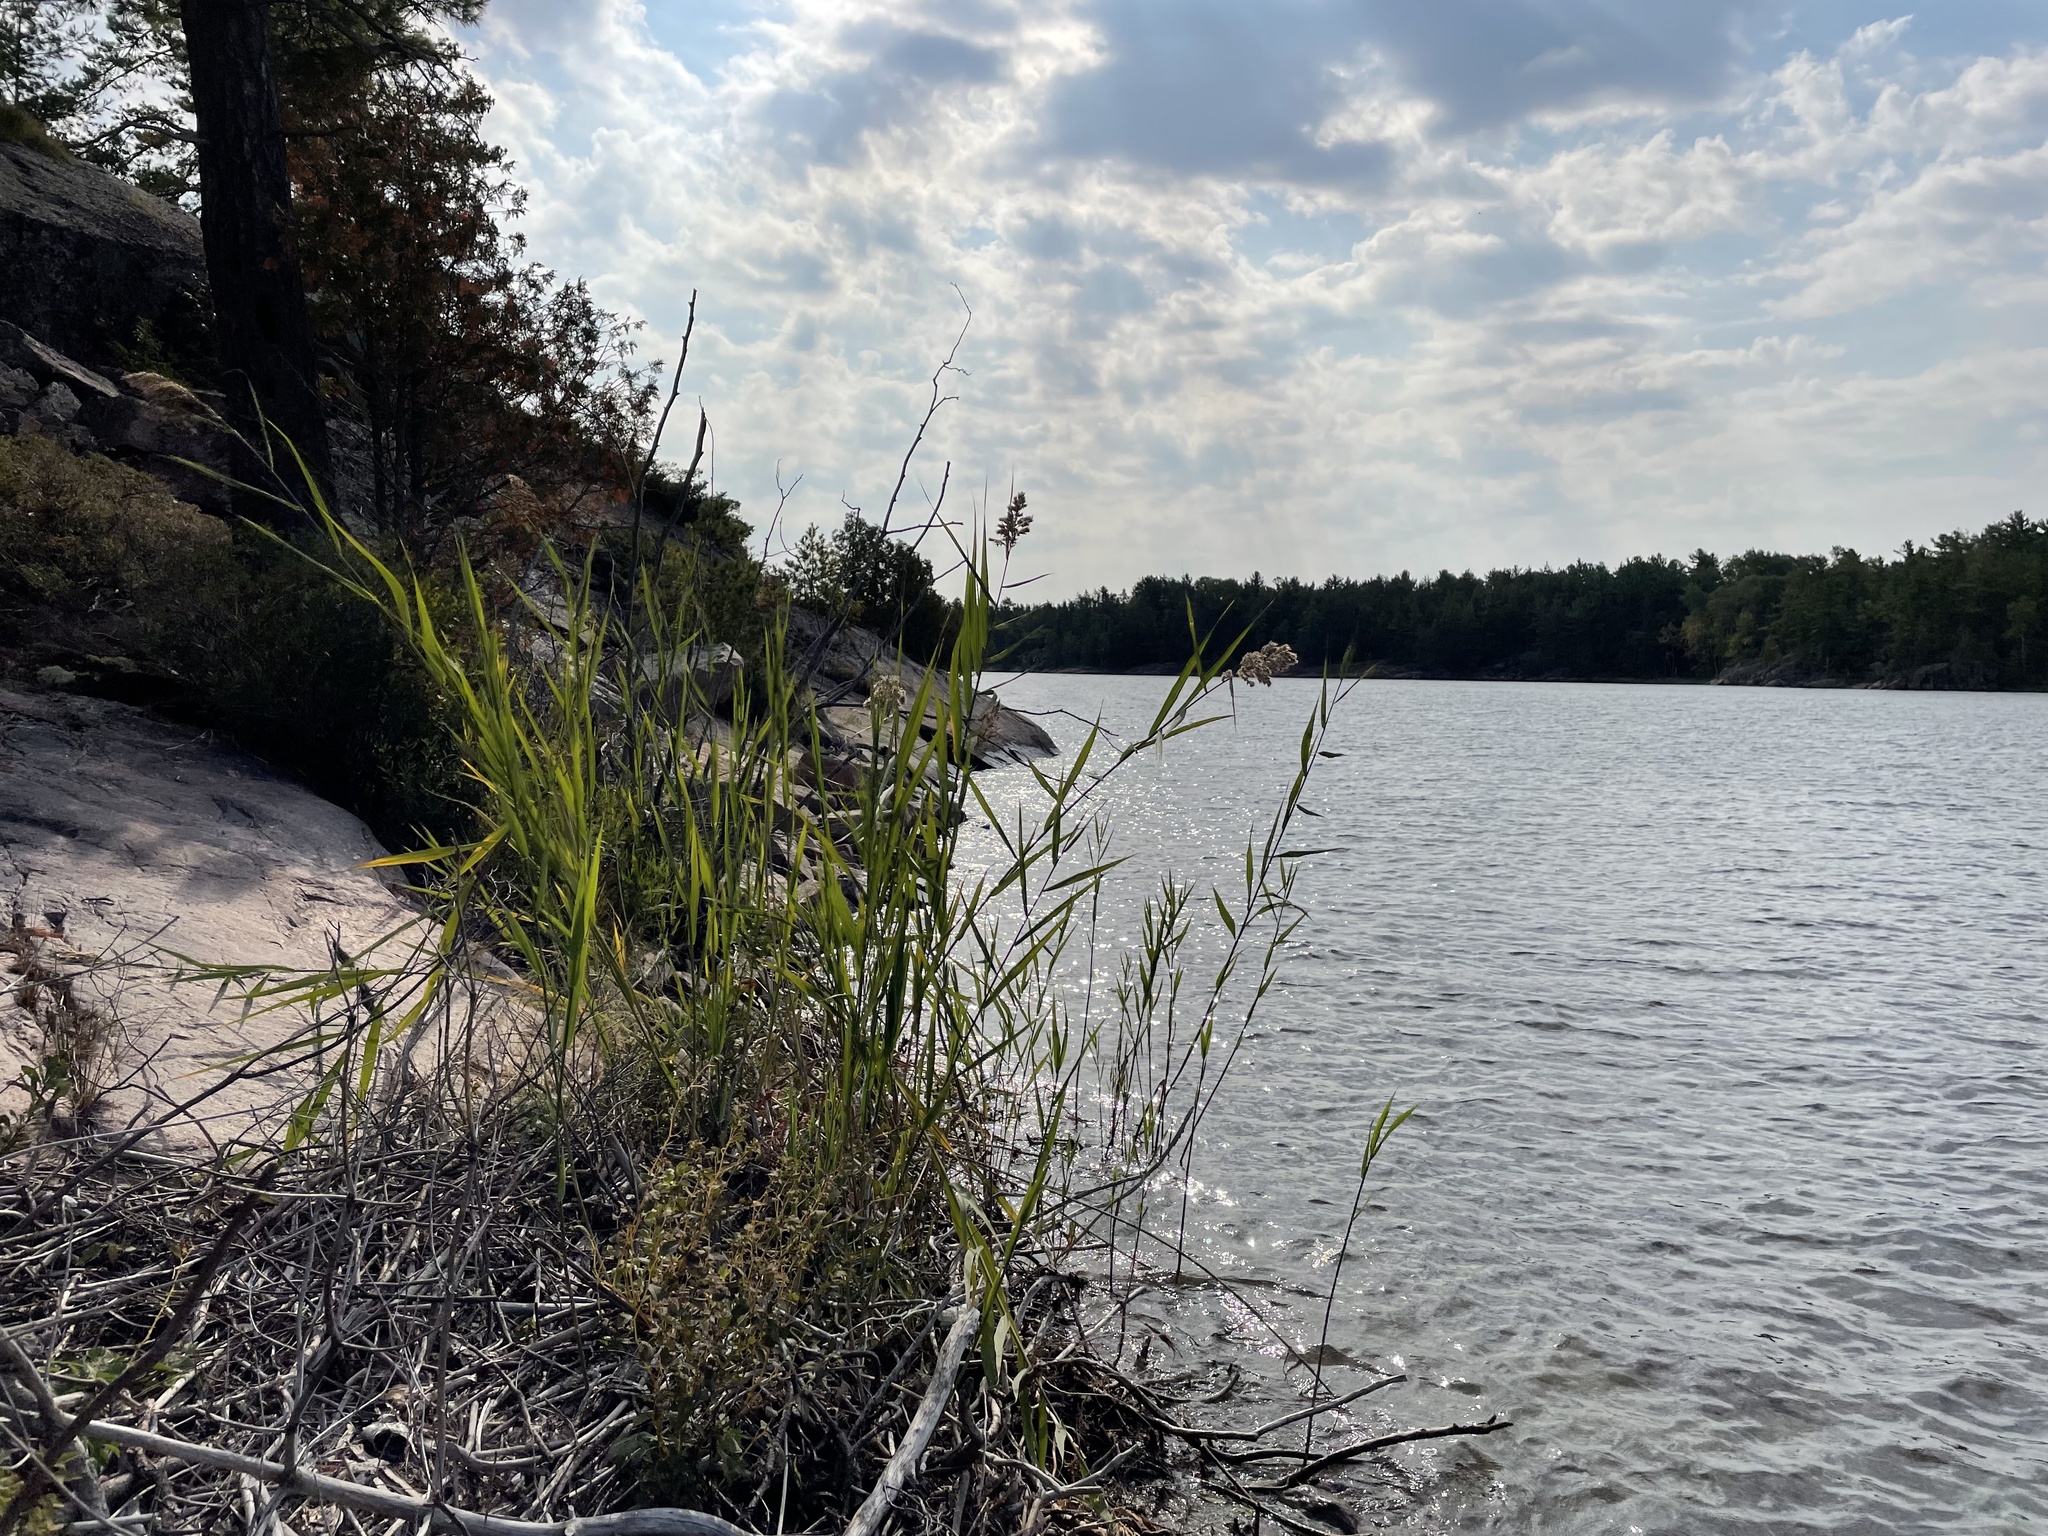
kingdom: Plantae
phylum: Tracheophyta
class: Liliopsida
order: Poales
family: Poaceae
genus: Phragmites
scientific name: Phragmites australis
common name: Common reed
